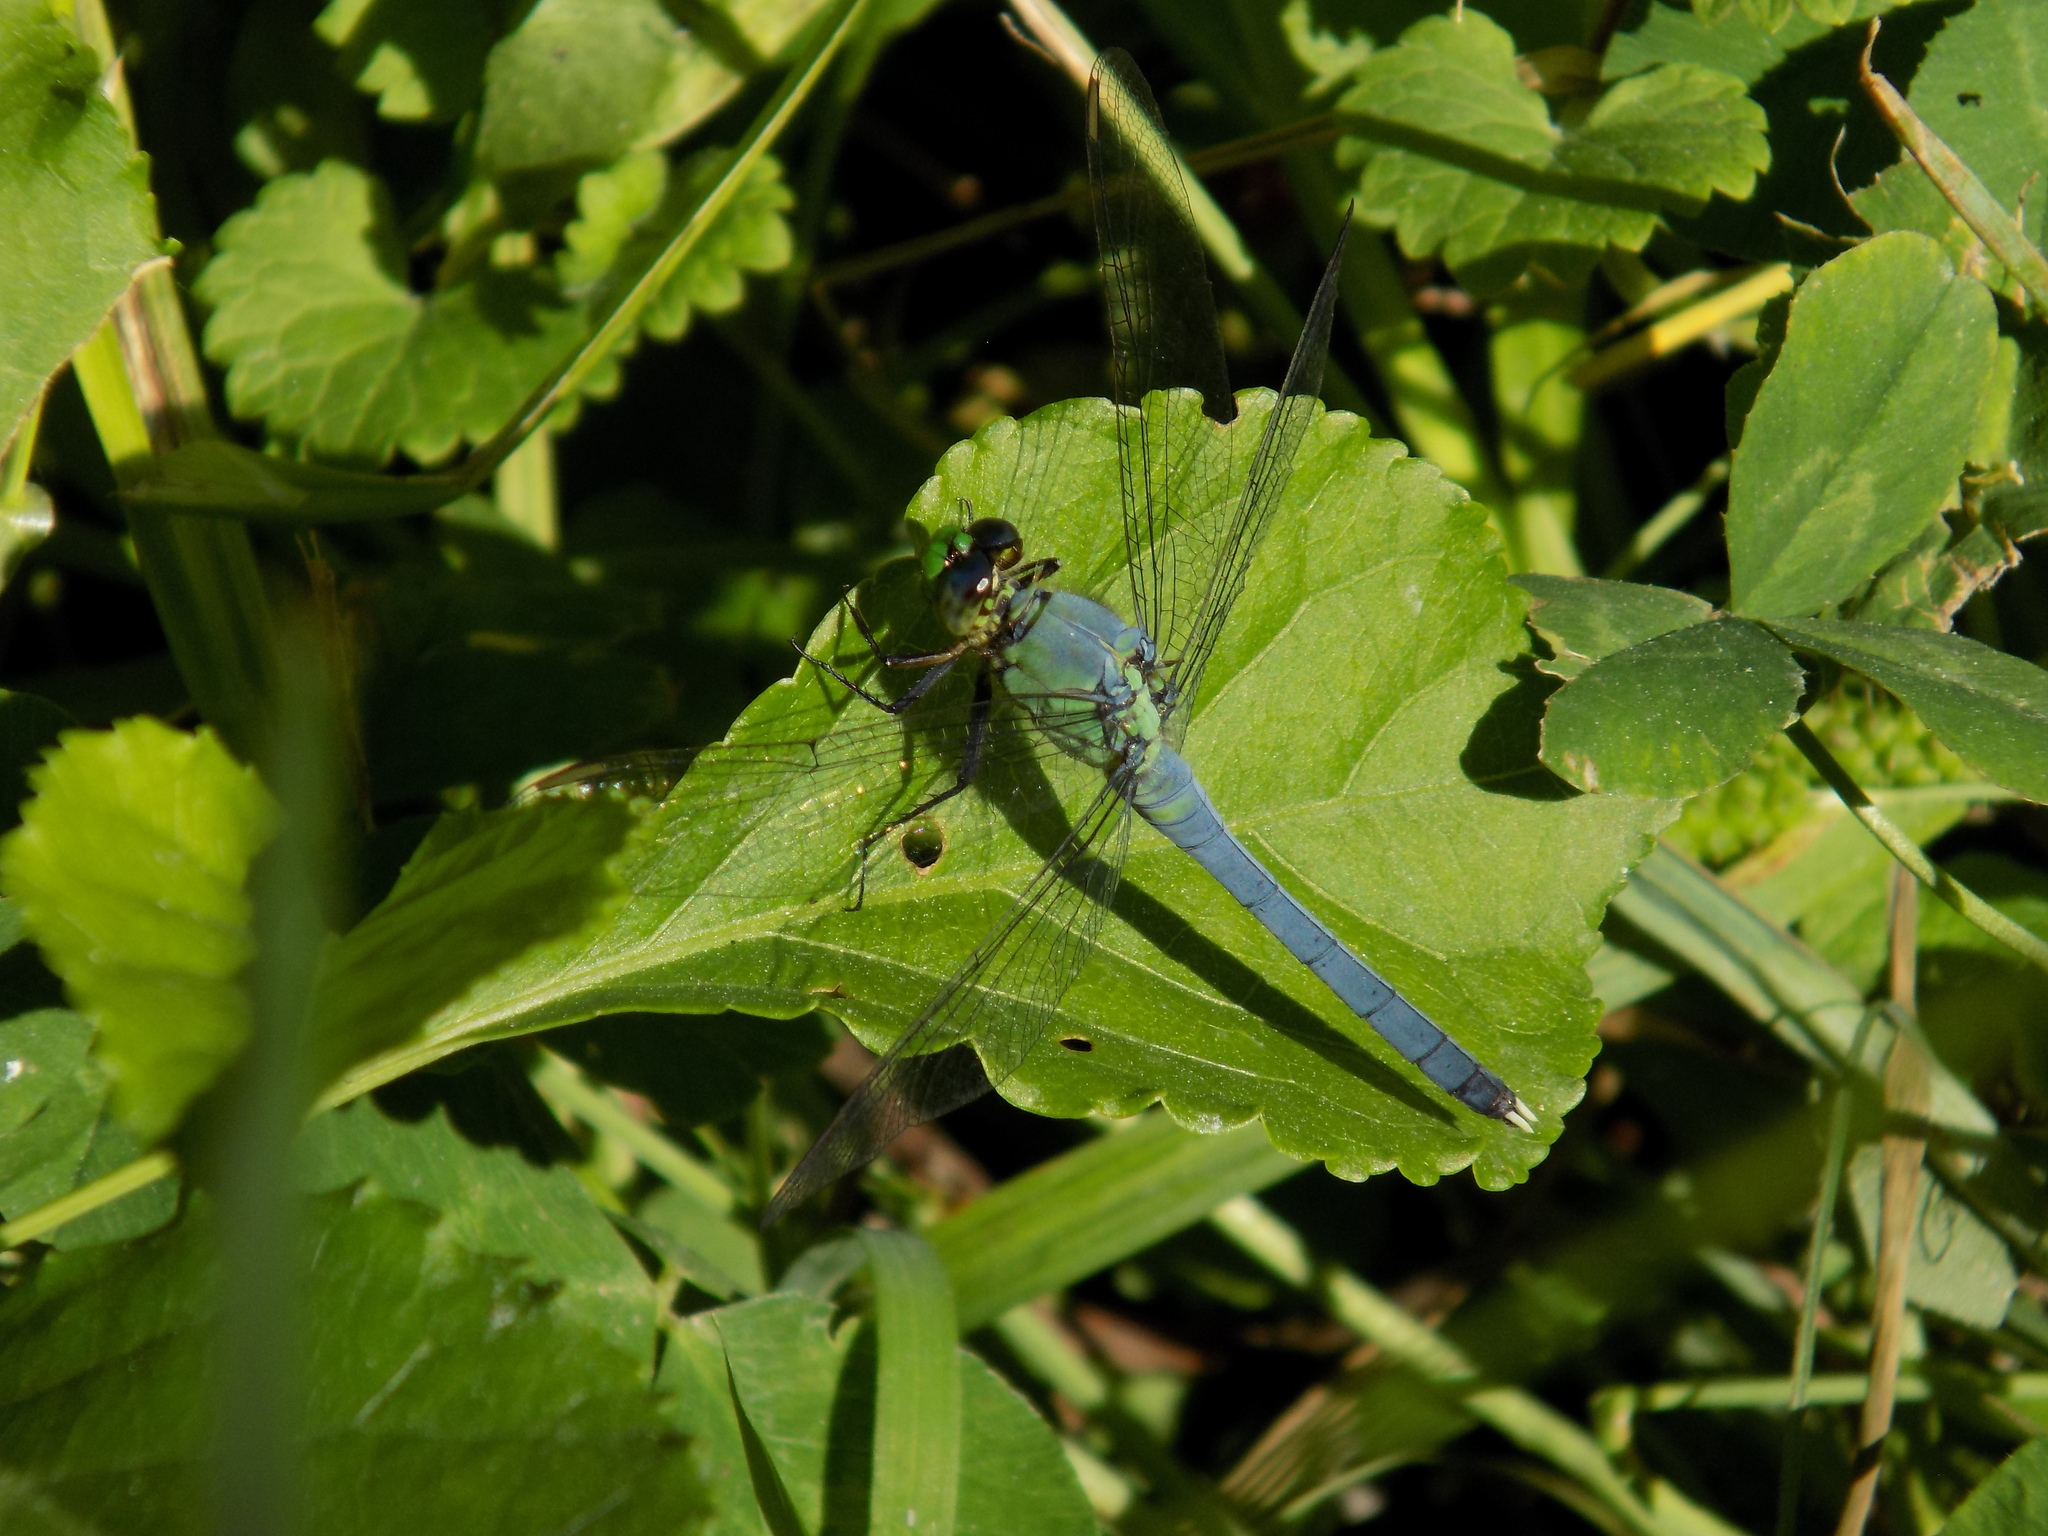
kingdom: Animalia
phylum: Arthropoda
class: Insecta
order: Odonata
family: Libellulidae
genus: Erythemis
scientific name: Erythemis simplicicollis
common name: Eastern pondhawk
